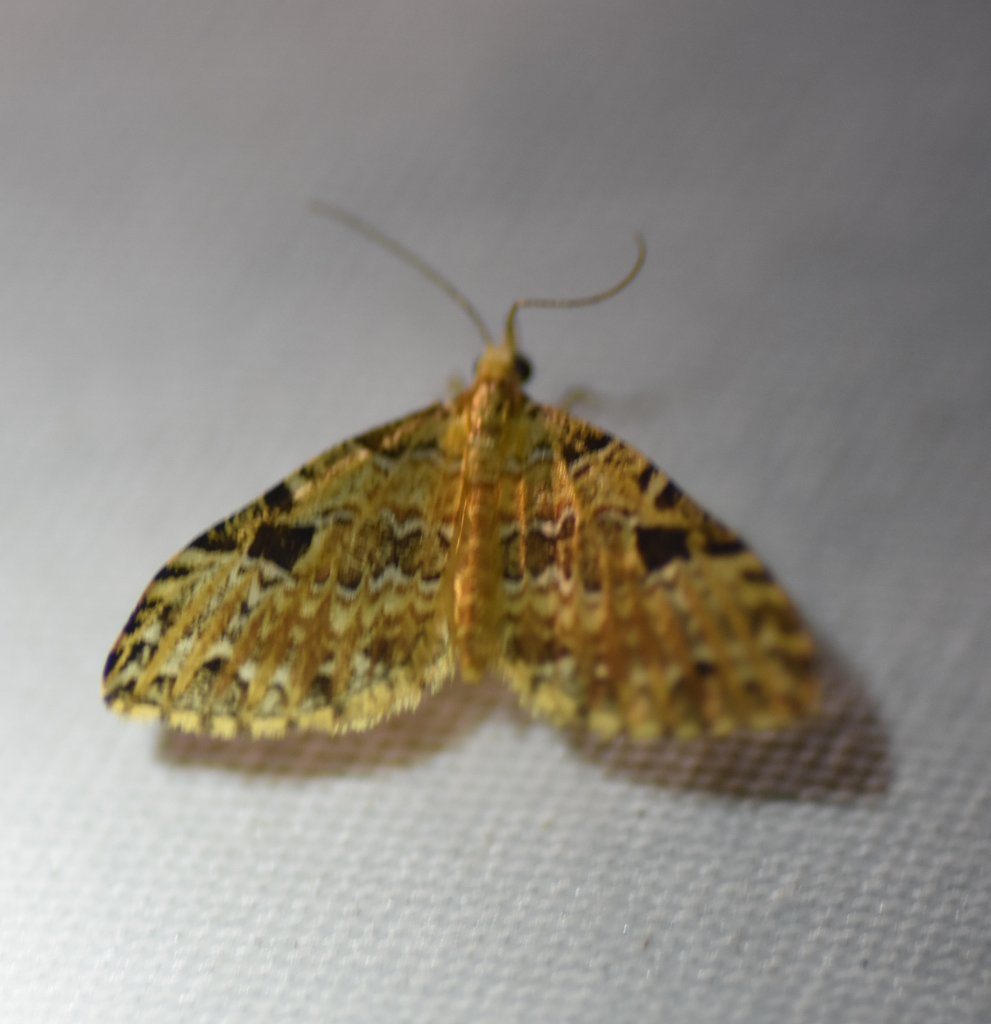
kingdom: Animalia
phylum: Arthropoda
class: Insecta
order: Lepidoptera
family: Geometridae
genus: Psaliodes
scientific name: Psaliodes apicenotata
